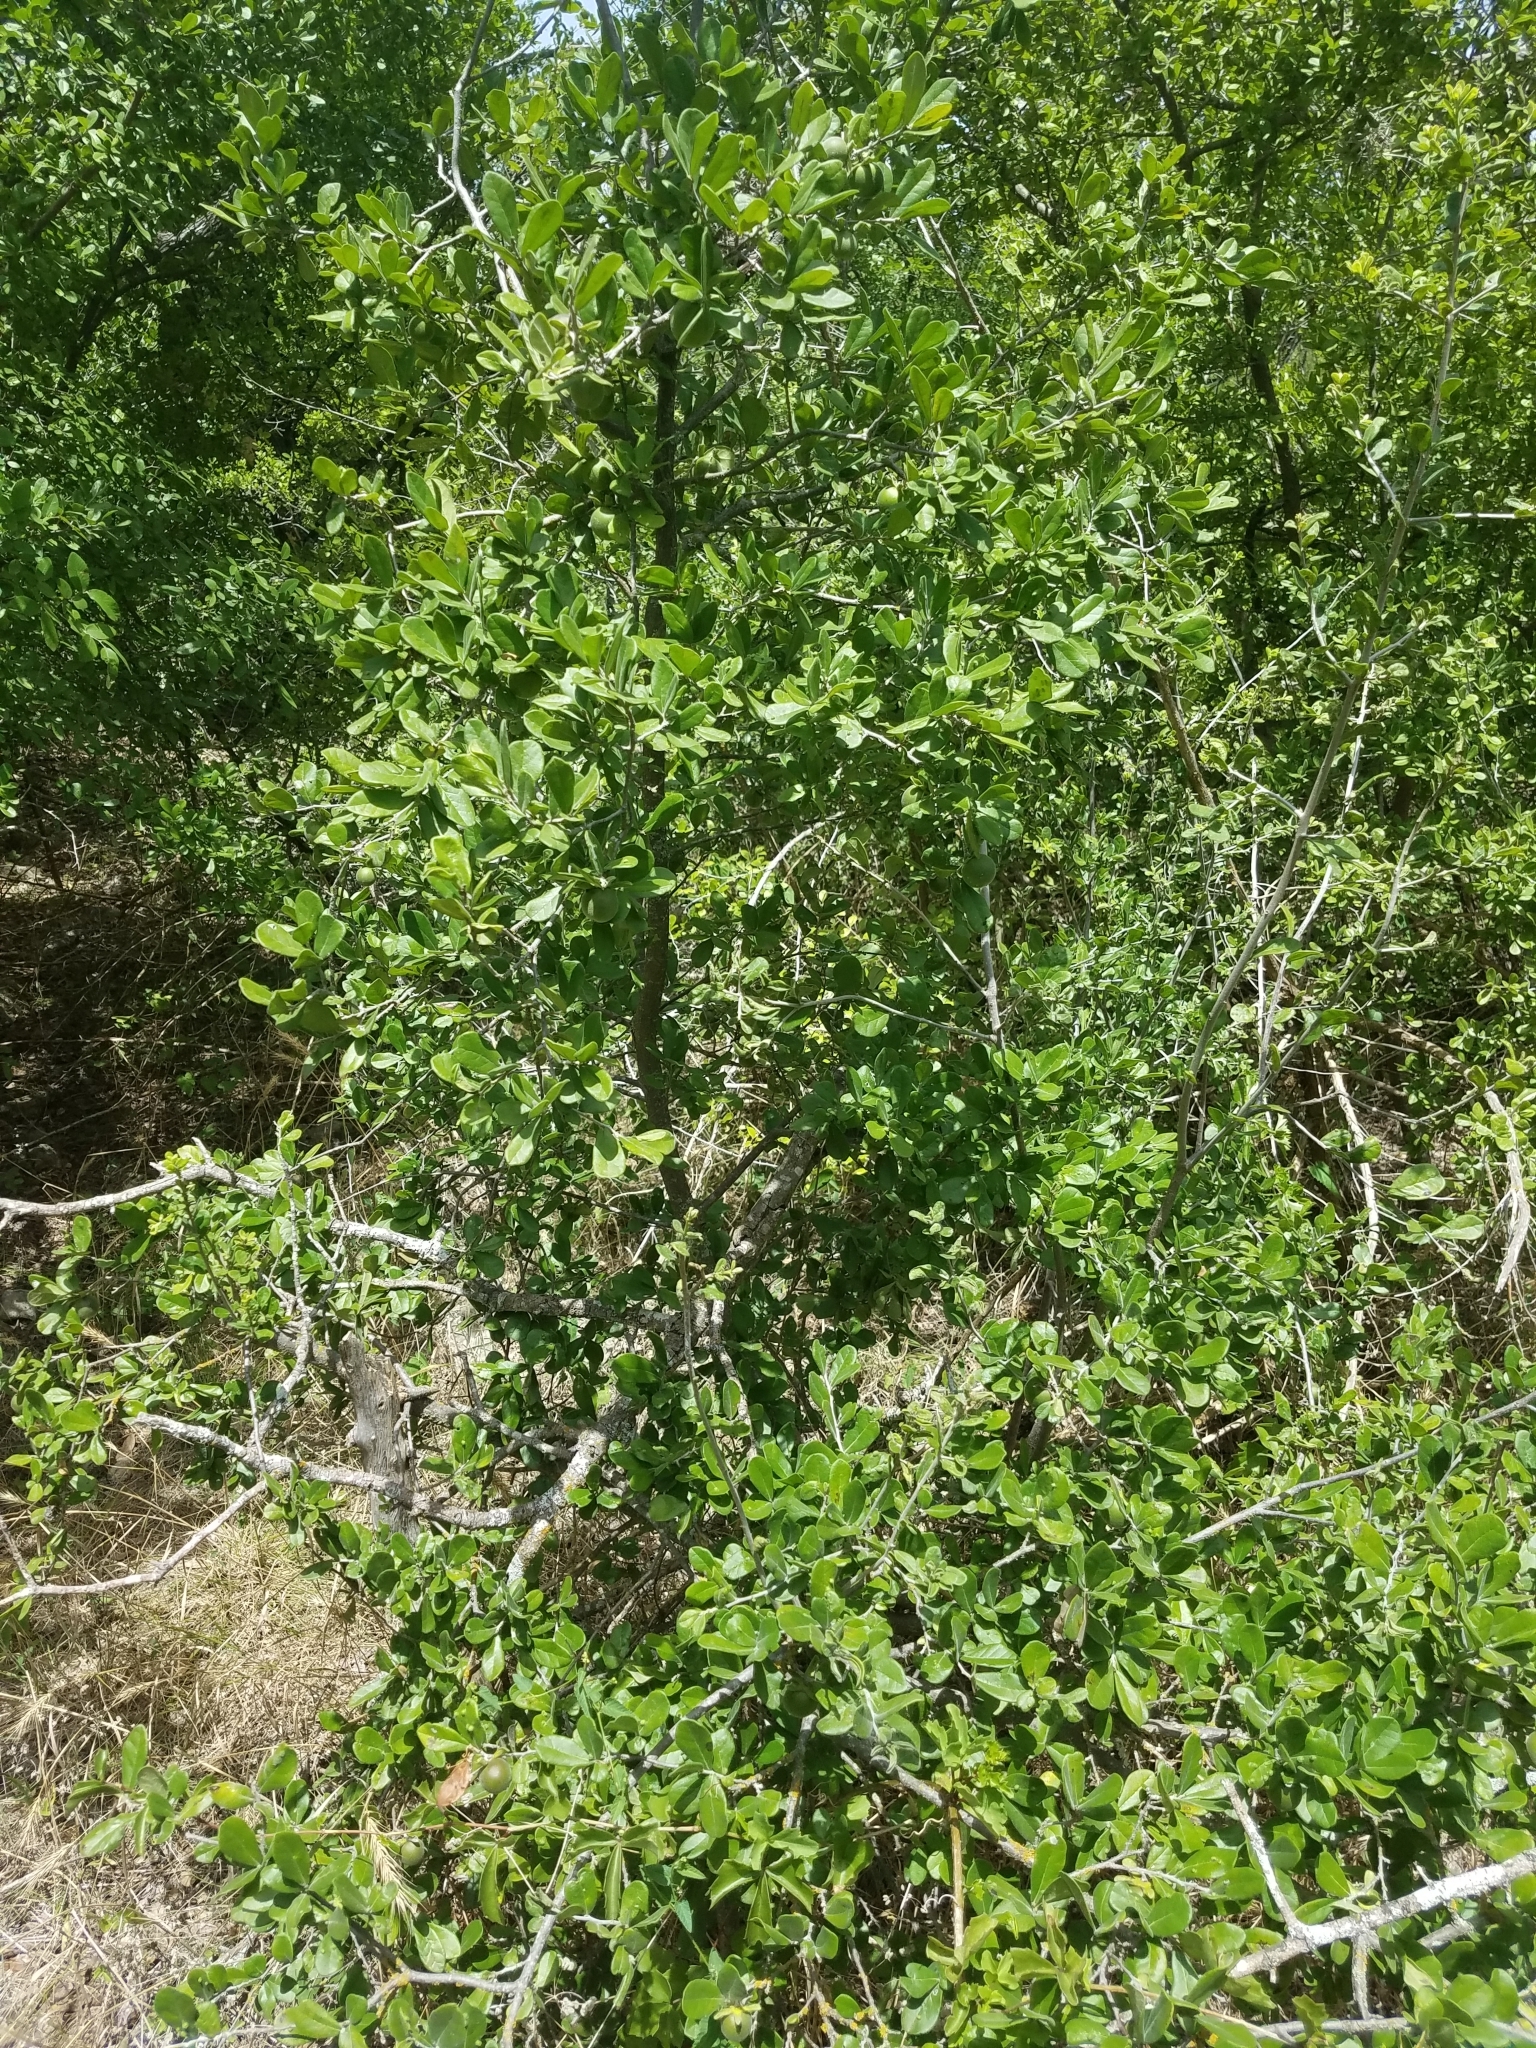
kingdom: Plantae
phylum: Tracheophyta
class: Magnoliopsida
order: Ericales
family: Ebenaceae
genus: Diospyros
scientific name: Diospyros texana
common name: Texas persimmon
